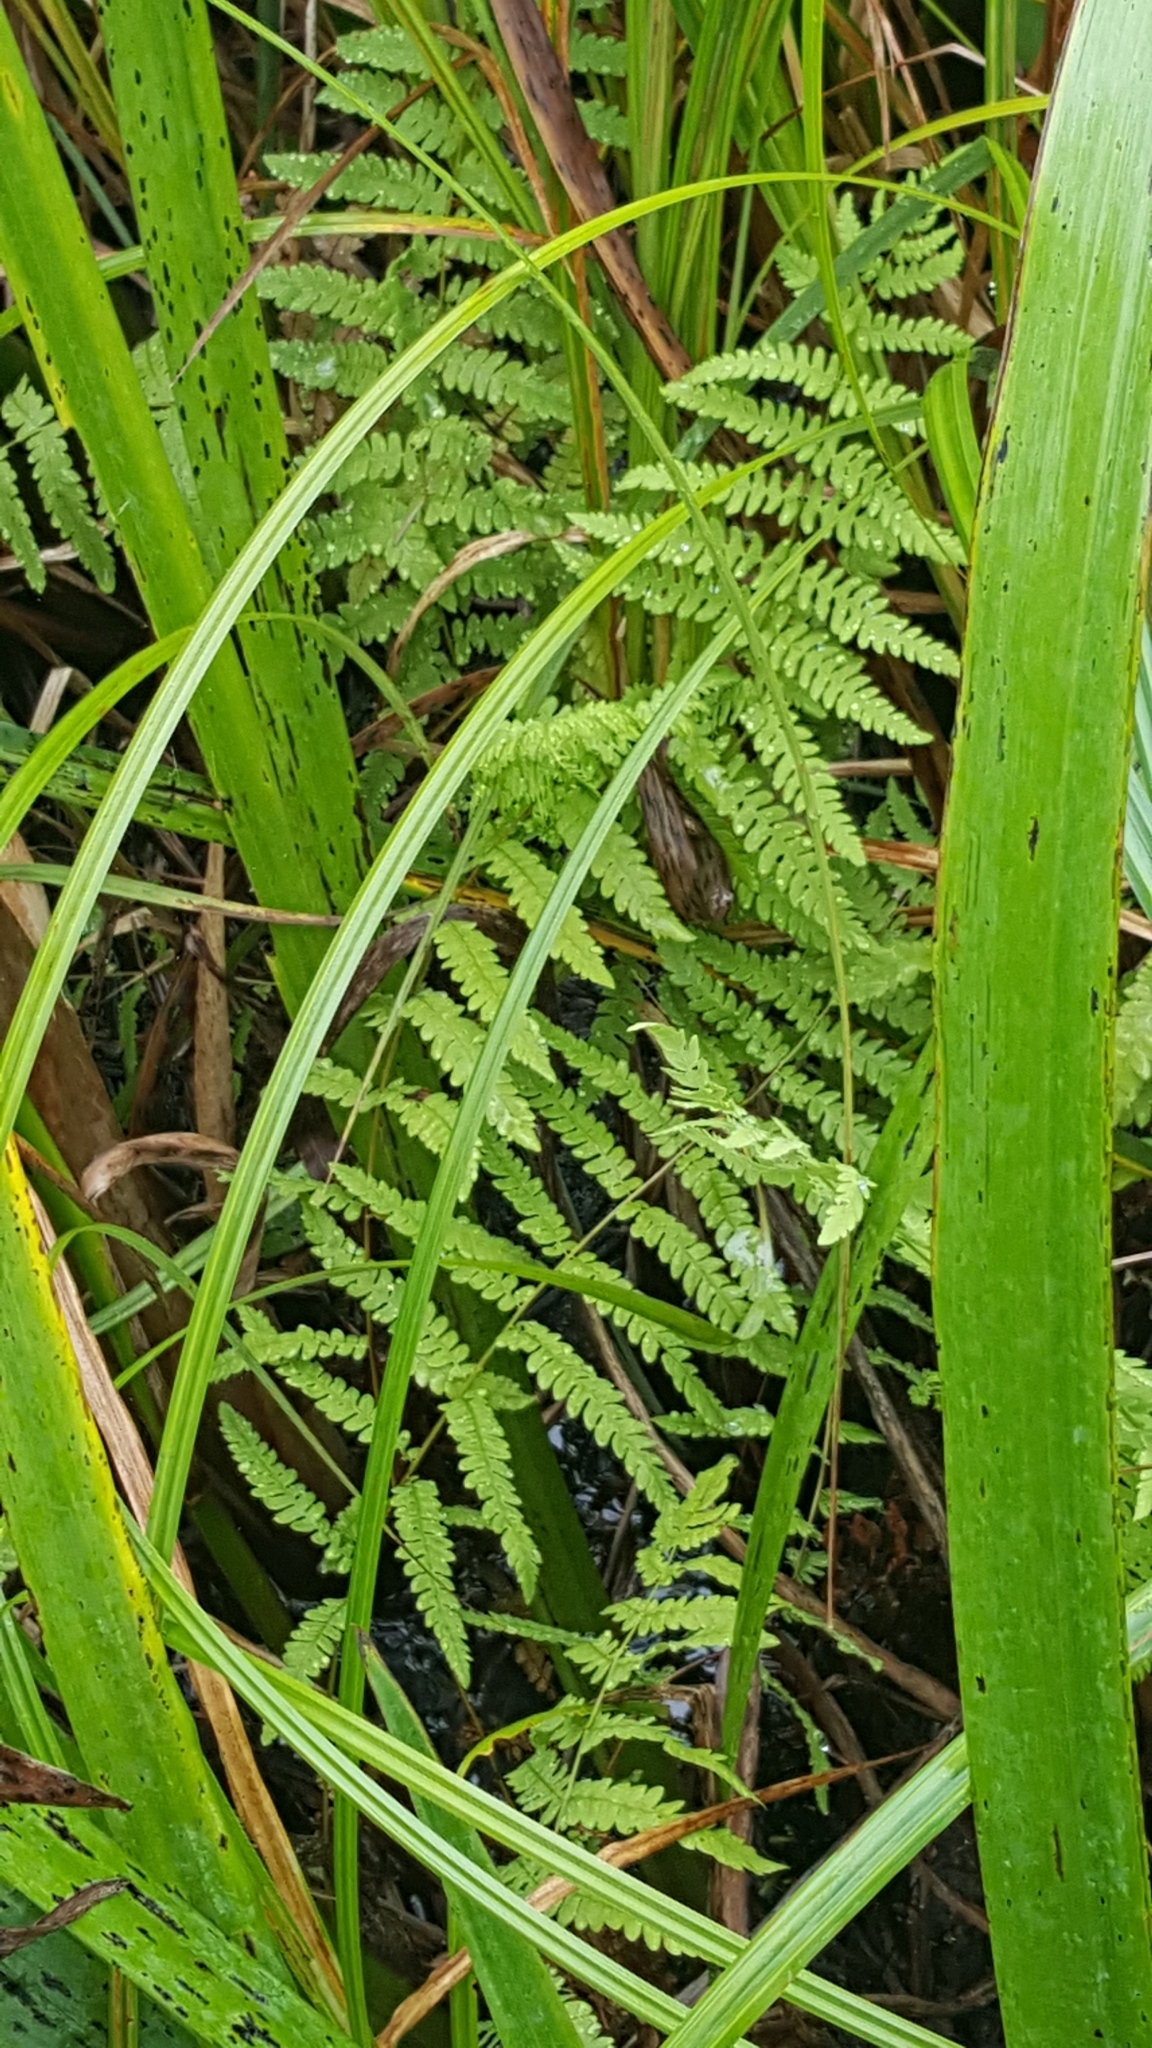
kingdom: Plantae
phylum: Tracheophyta
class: Polypodiopsida
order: Polypodiales
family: Thelypteridaceae
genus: Thelypteris
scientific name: Thelypteris palustris
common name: Marsh fern
